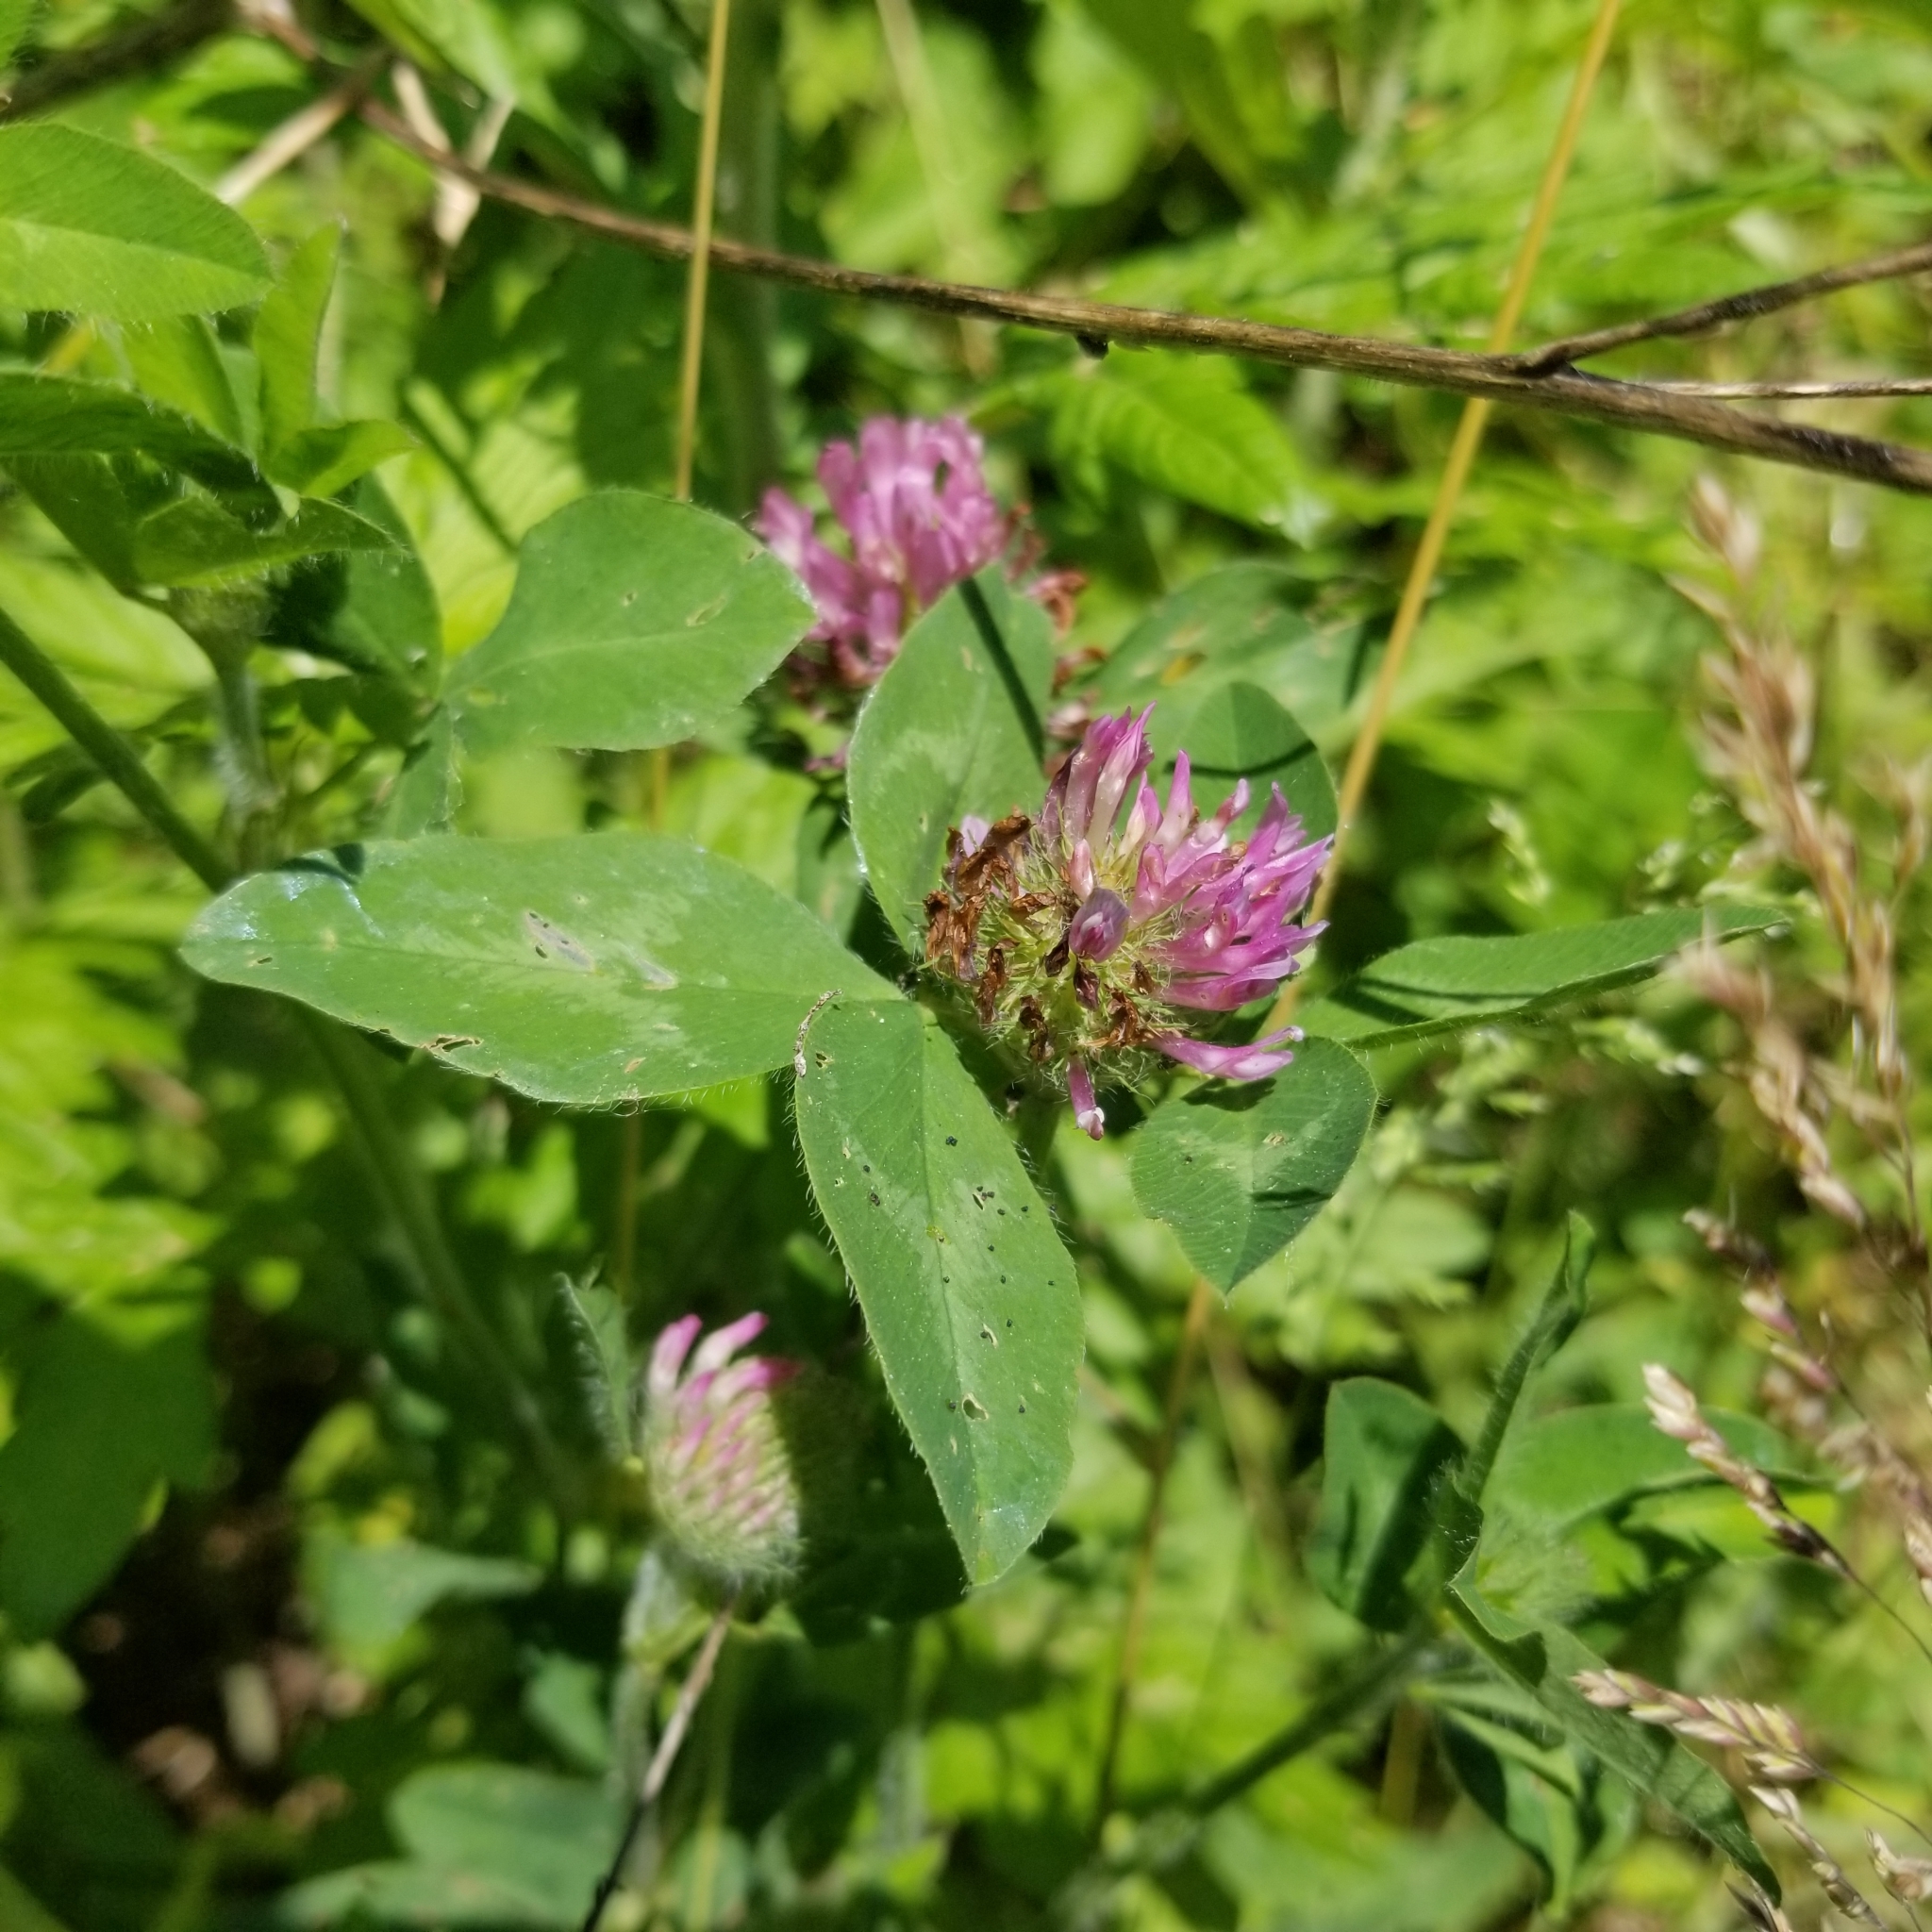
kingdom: Plantae
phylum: Tracheophyta
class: Magnoliopsida
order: Fabales
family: Fabaceae
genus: Trifolium
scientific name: Trifolium pratense
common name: Red clover
